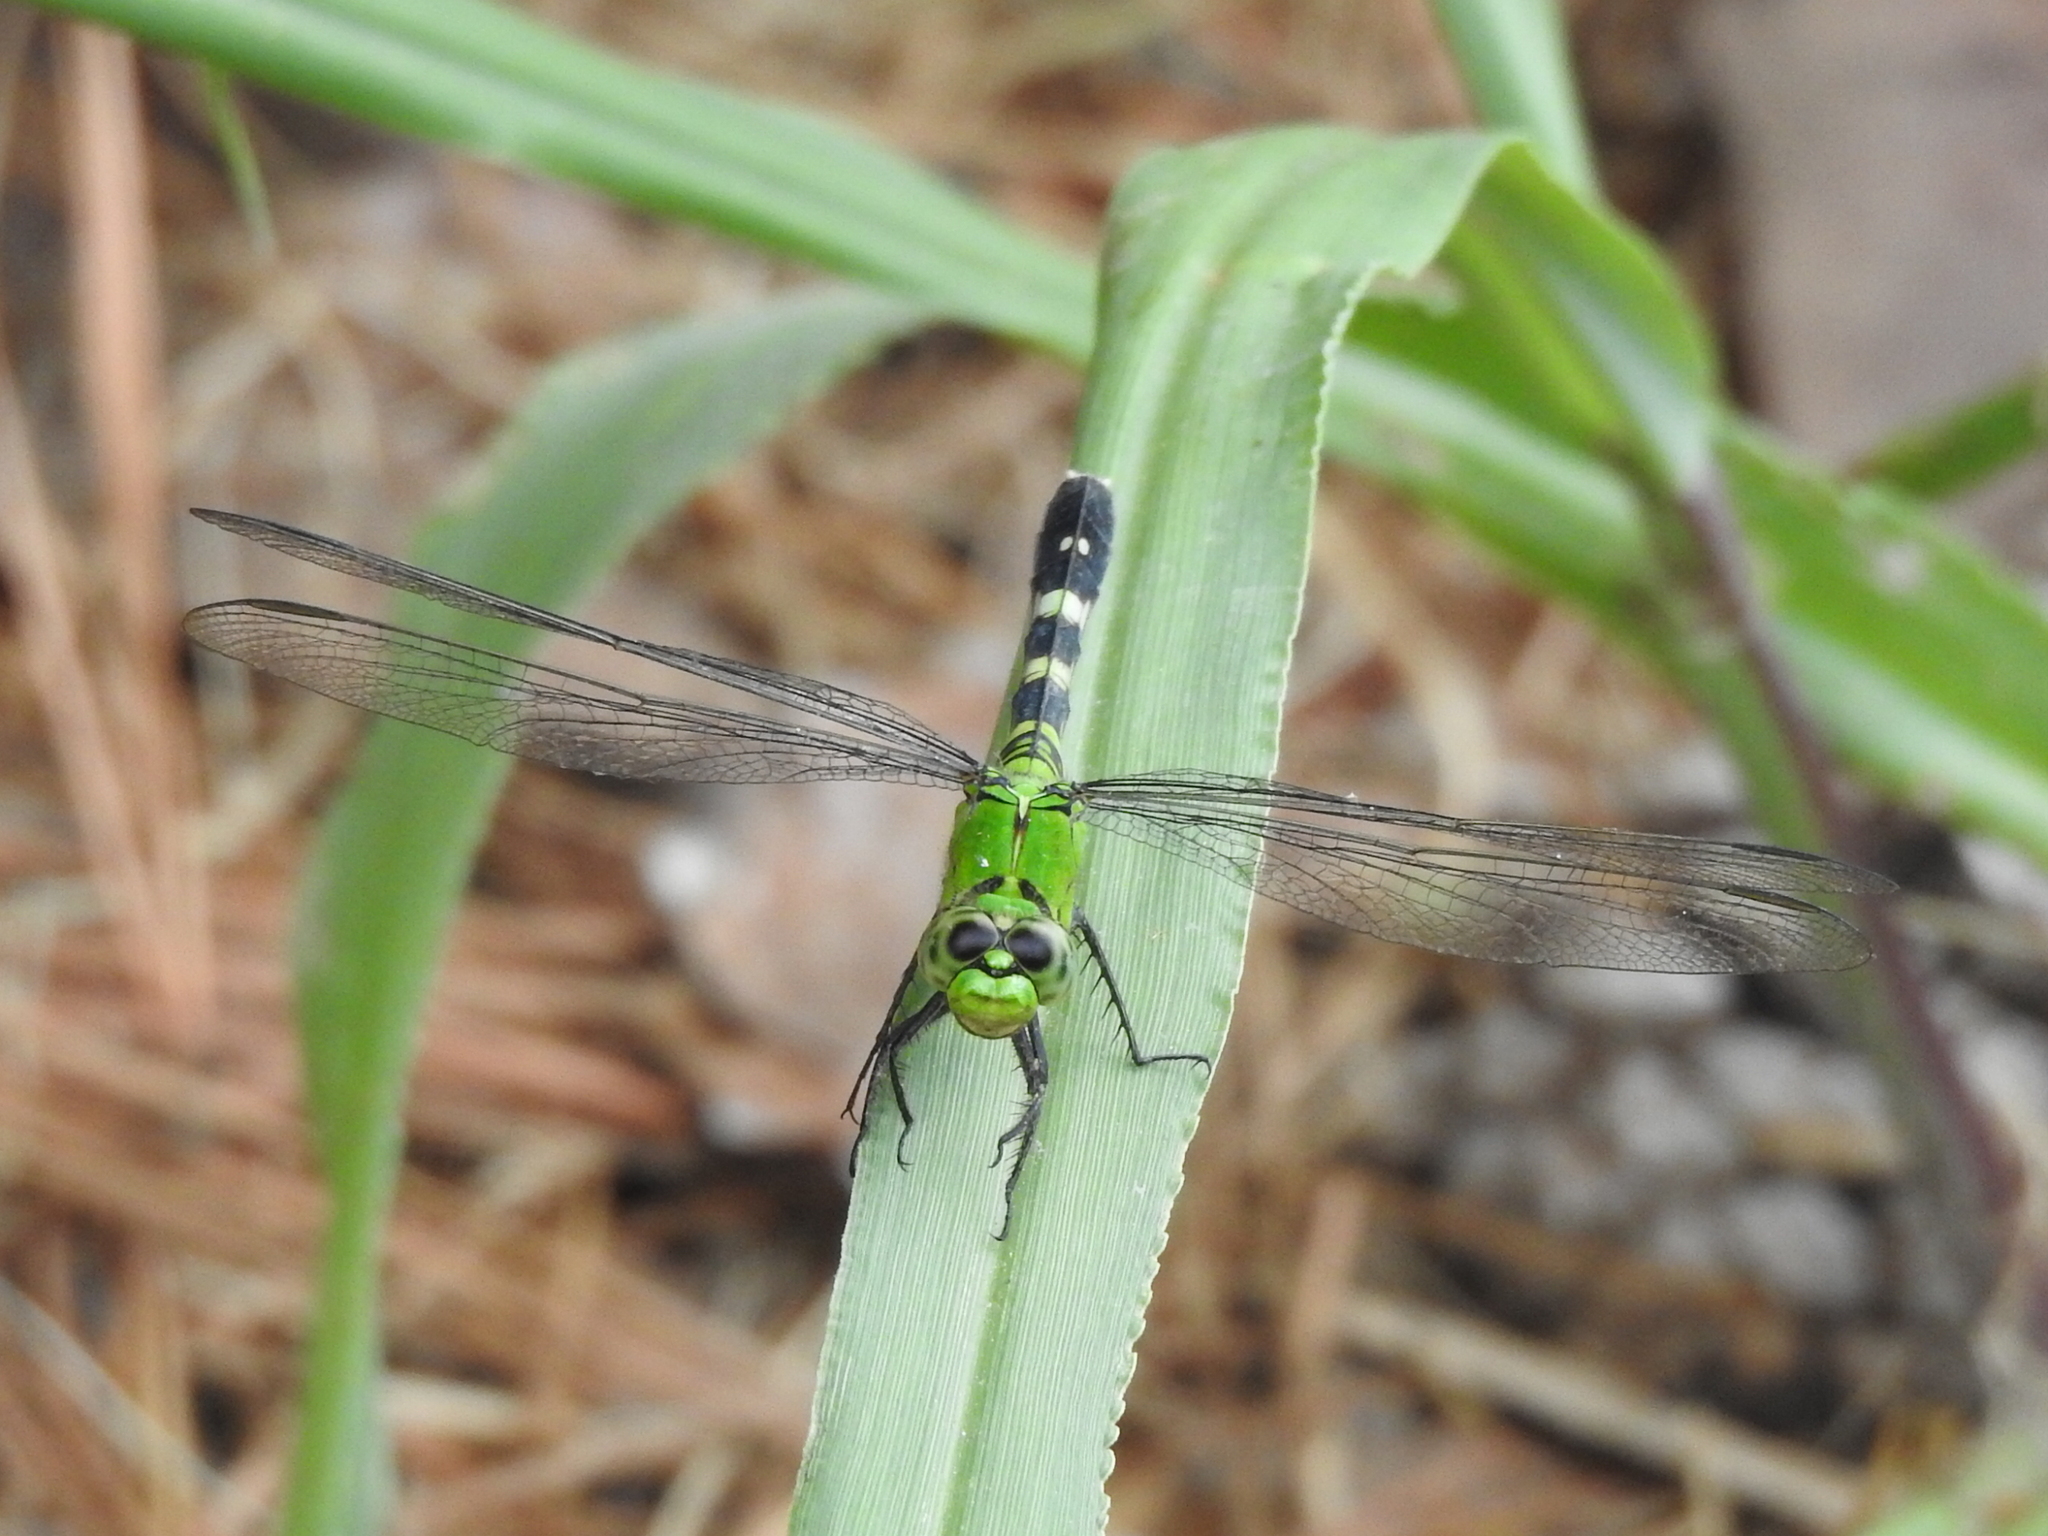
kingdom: Animalia
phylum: Arthropoda
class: Insecta
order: Odonata
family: Libellulidae
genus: Erythemis
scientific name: Erythemis simplicicollis
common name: Eastern pondhawk
